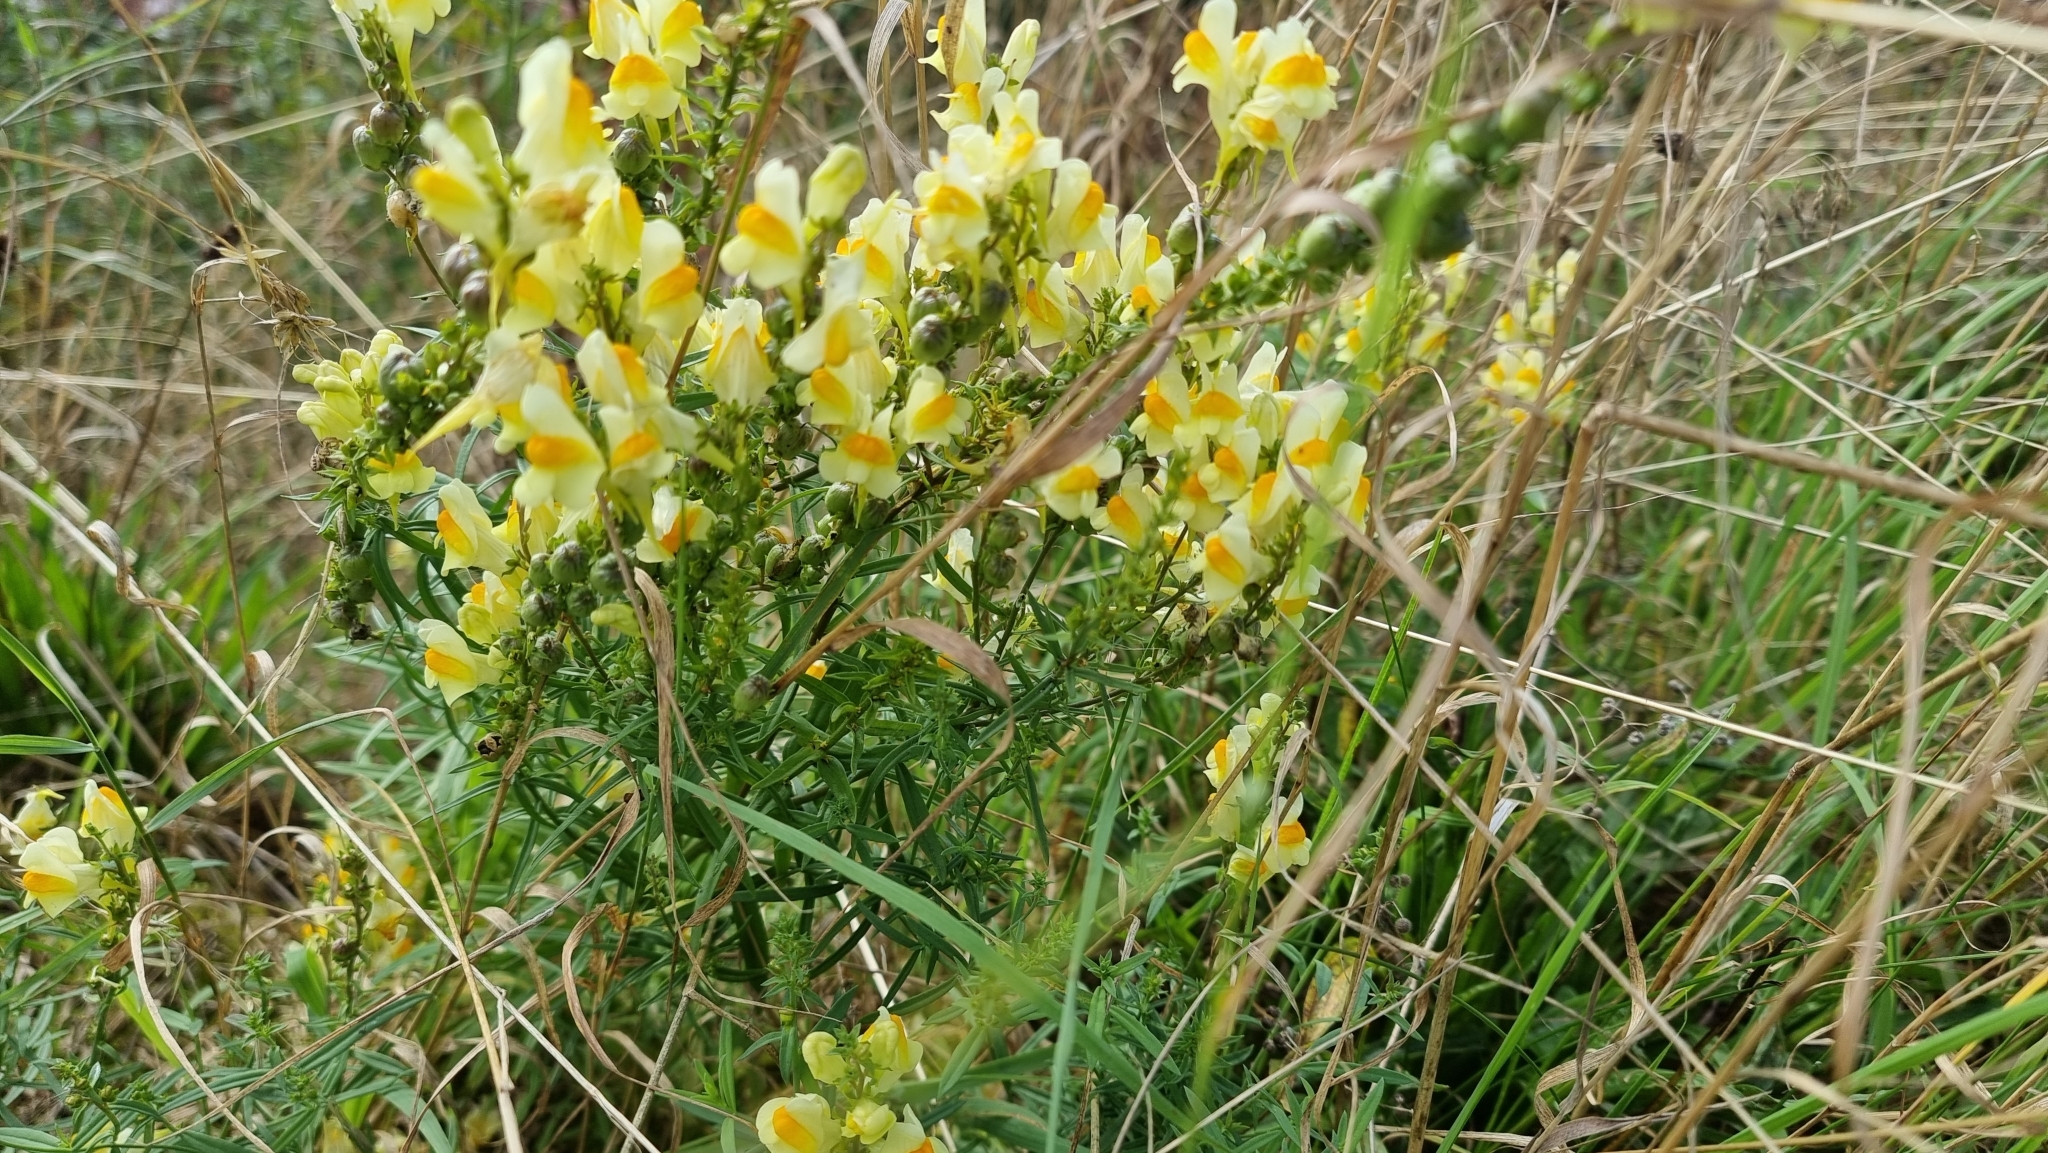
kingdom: Plantae
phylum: Tracheophyta
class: Magnoliopsida
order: Lamiales
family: Plantaginaceae
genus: Linaria
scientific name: Linaria vulgaris
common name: Butter and eggs
